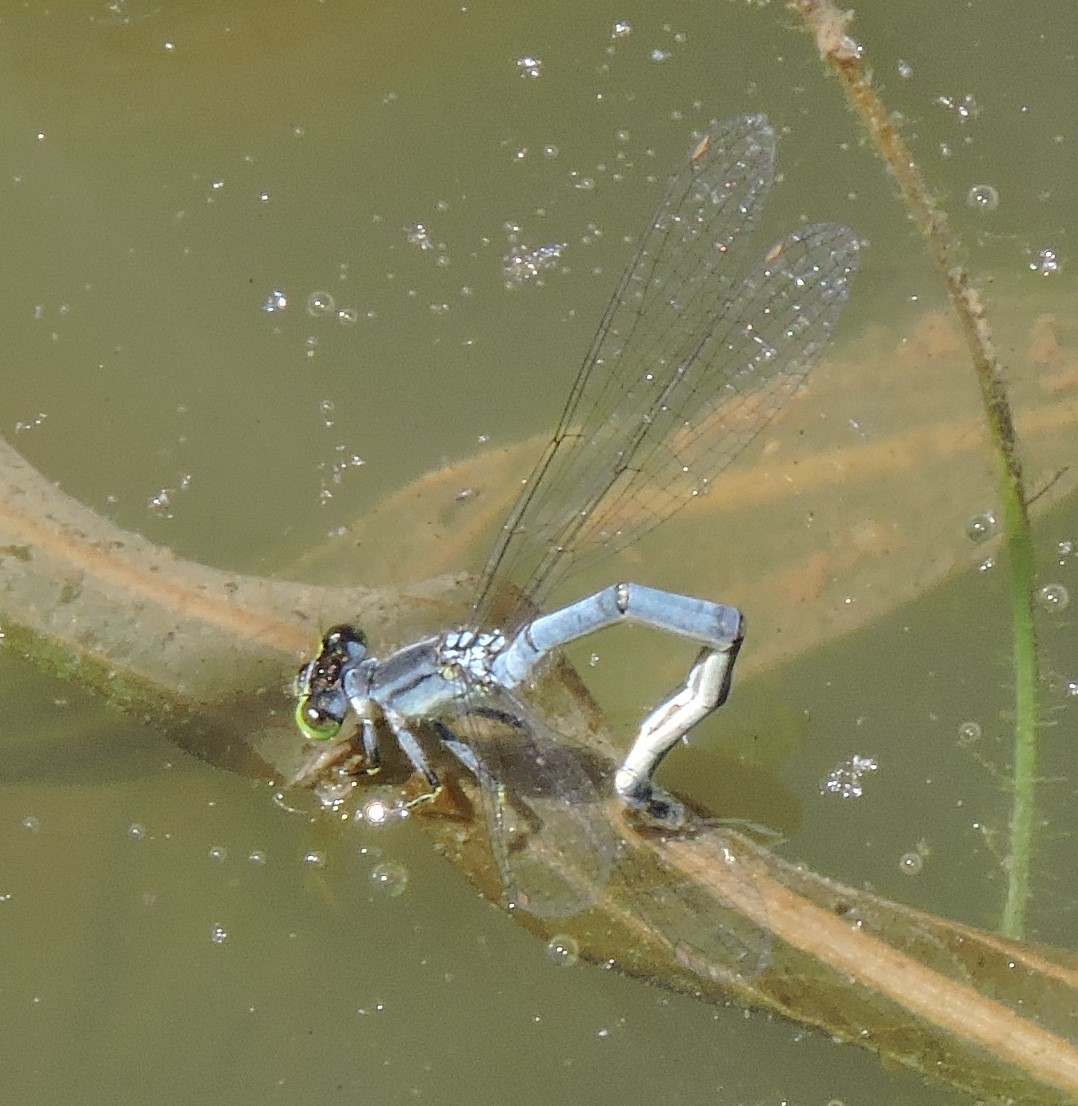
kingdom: Animalia
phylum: Arthropoda
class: Insecta
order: Odonata
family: Coenagrionidae
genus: Ischnura
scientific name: Ischnura verticalis
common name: Eastern forktail
